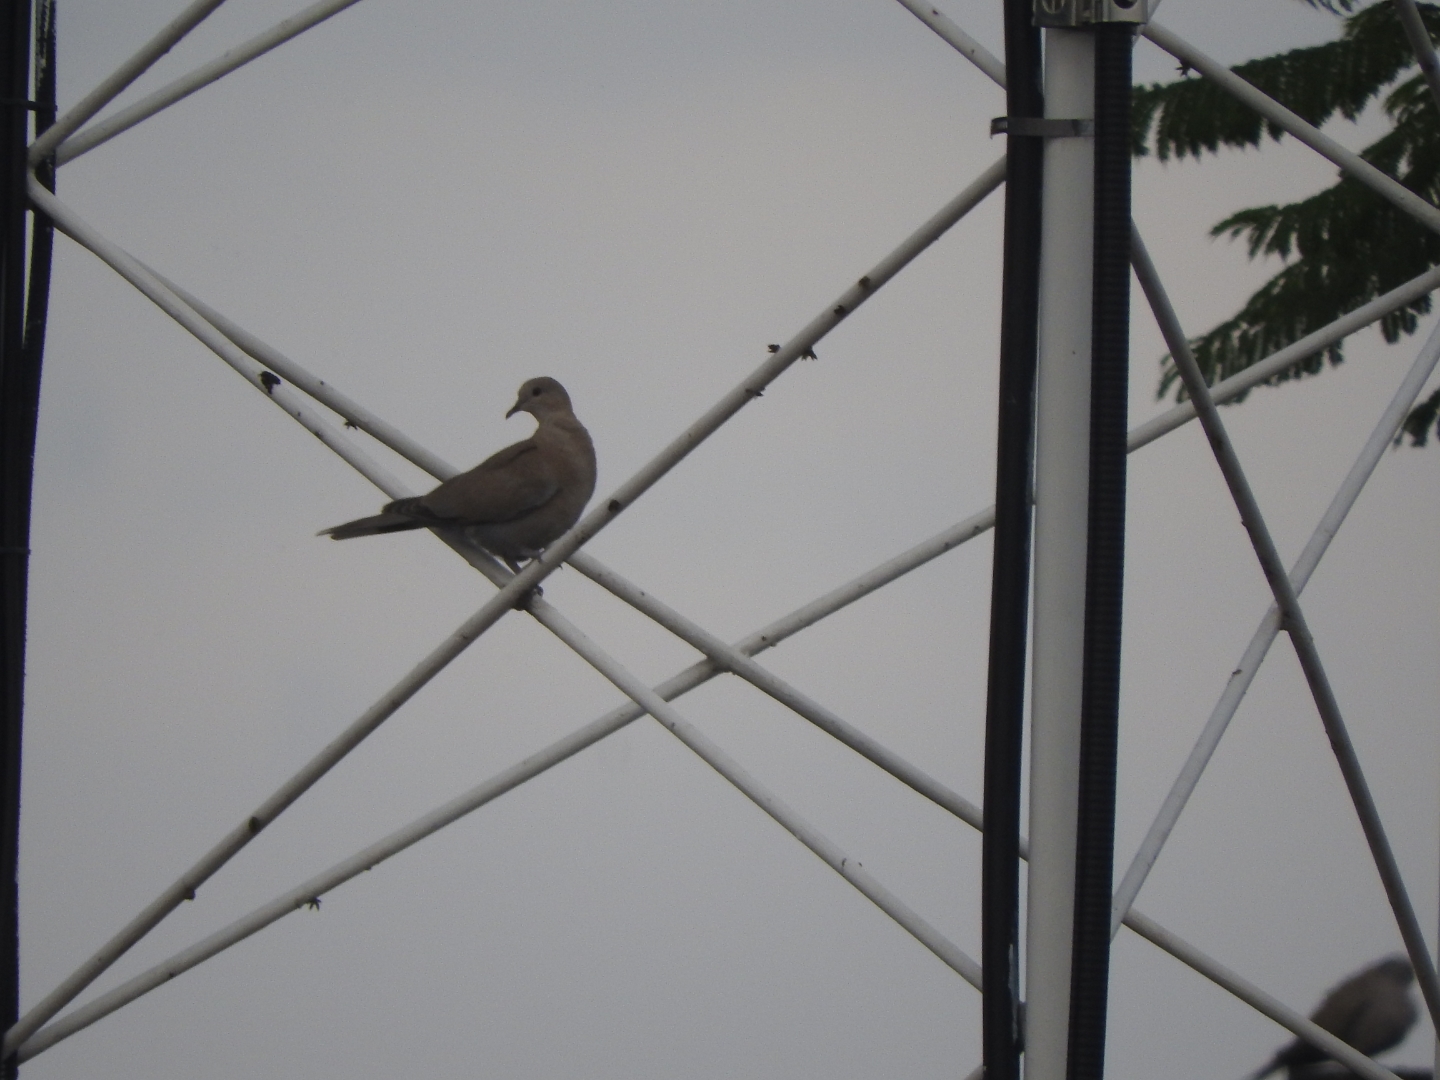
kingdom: Animalia
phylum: Chordata
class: Aves
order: Columbiformes
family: Columbidae
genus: Streptopelia
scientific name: Streptopelia decaocto
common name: Eurasian collared dove
